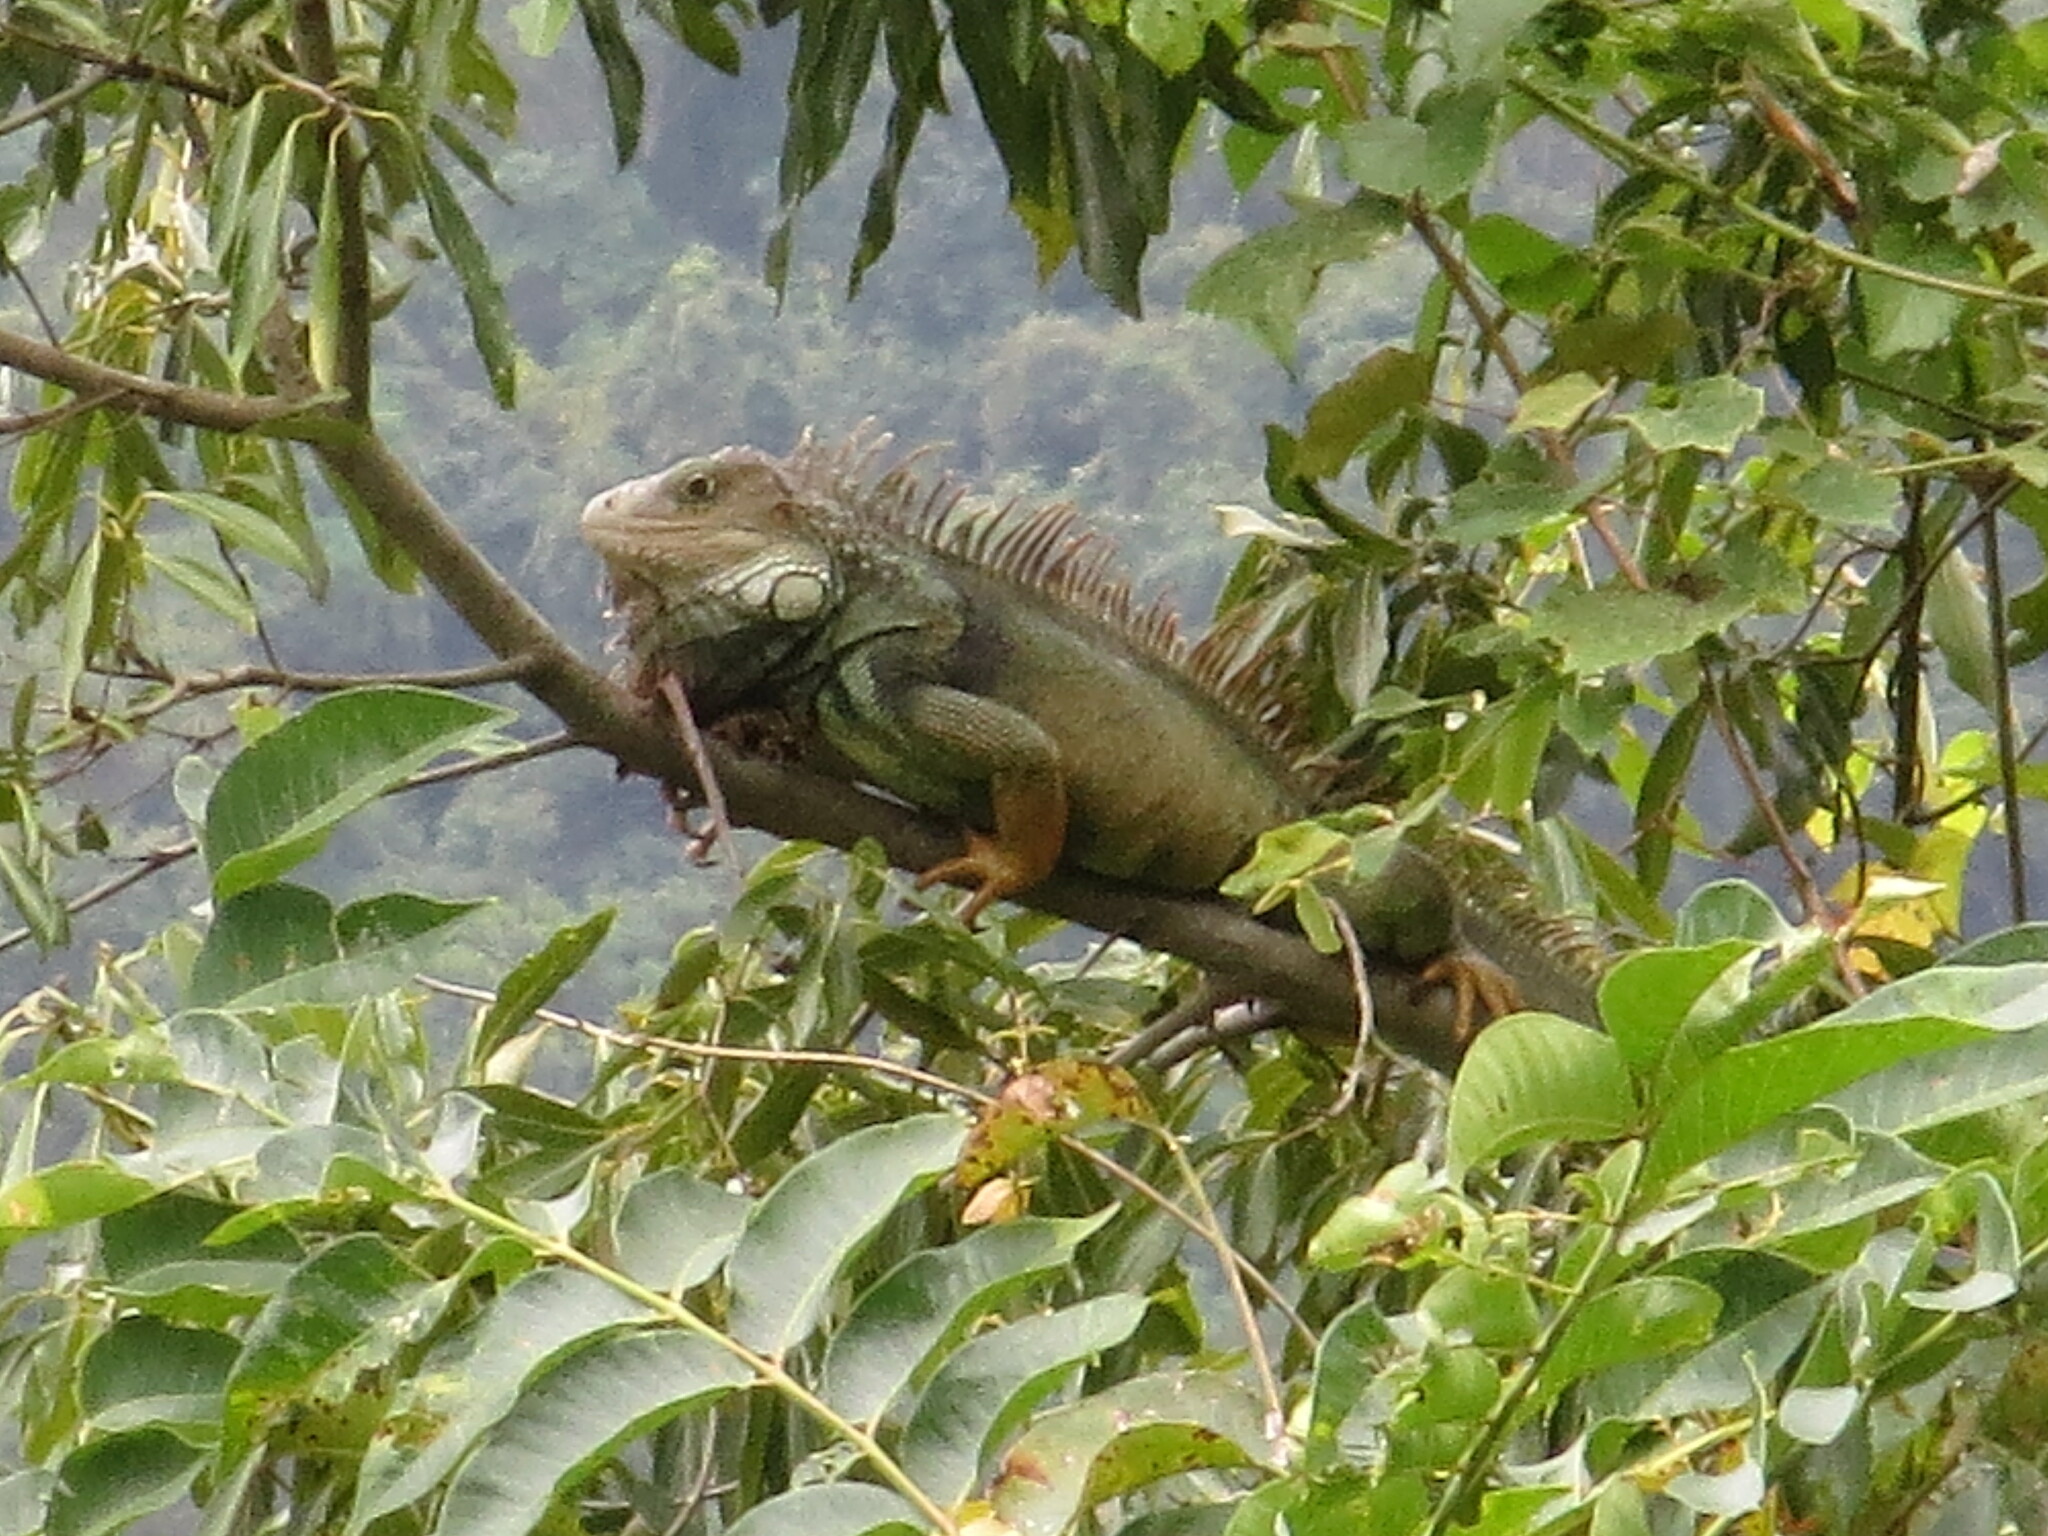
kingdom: Animalia
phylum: Chordata
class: Squamata
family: Iguanidae
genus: Iguana
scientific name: Iguana iguana
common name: Green iguana
